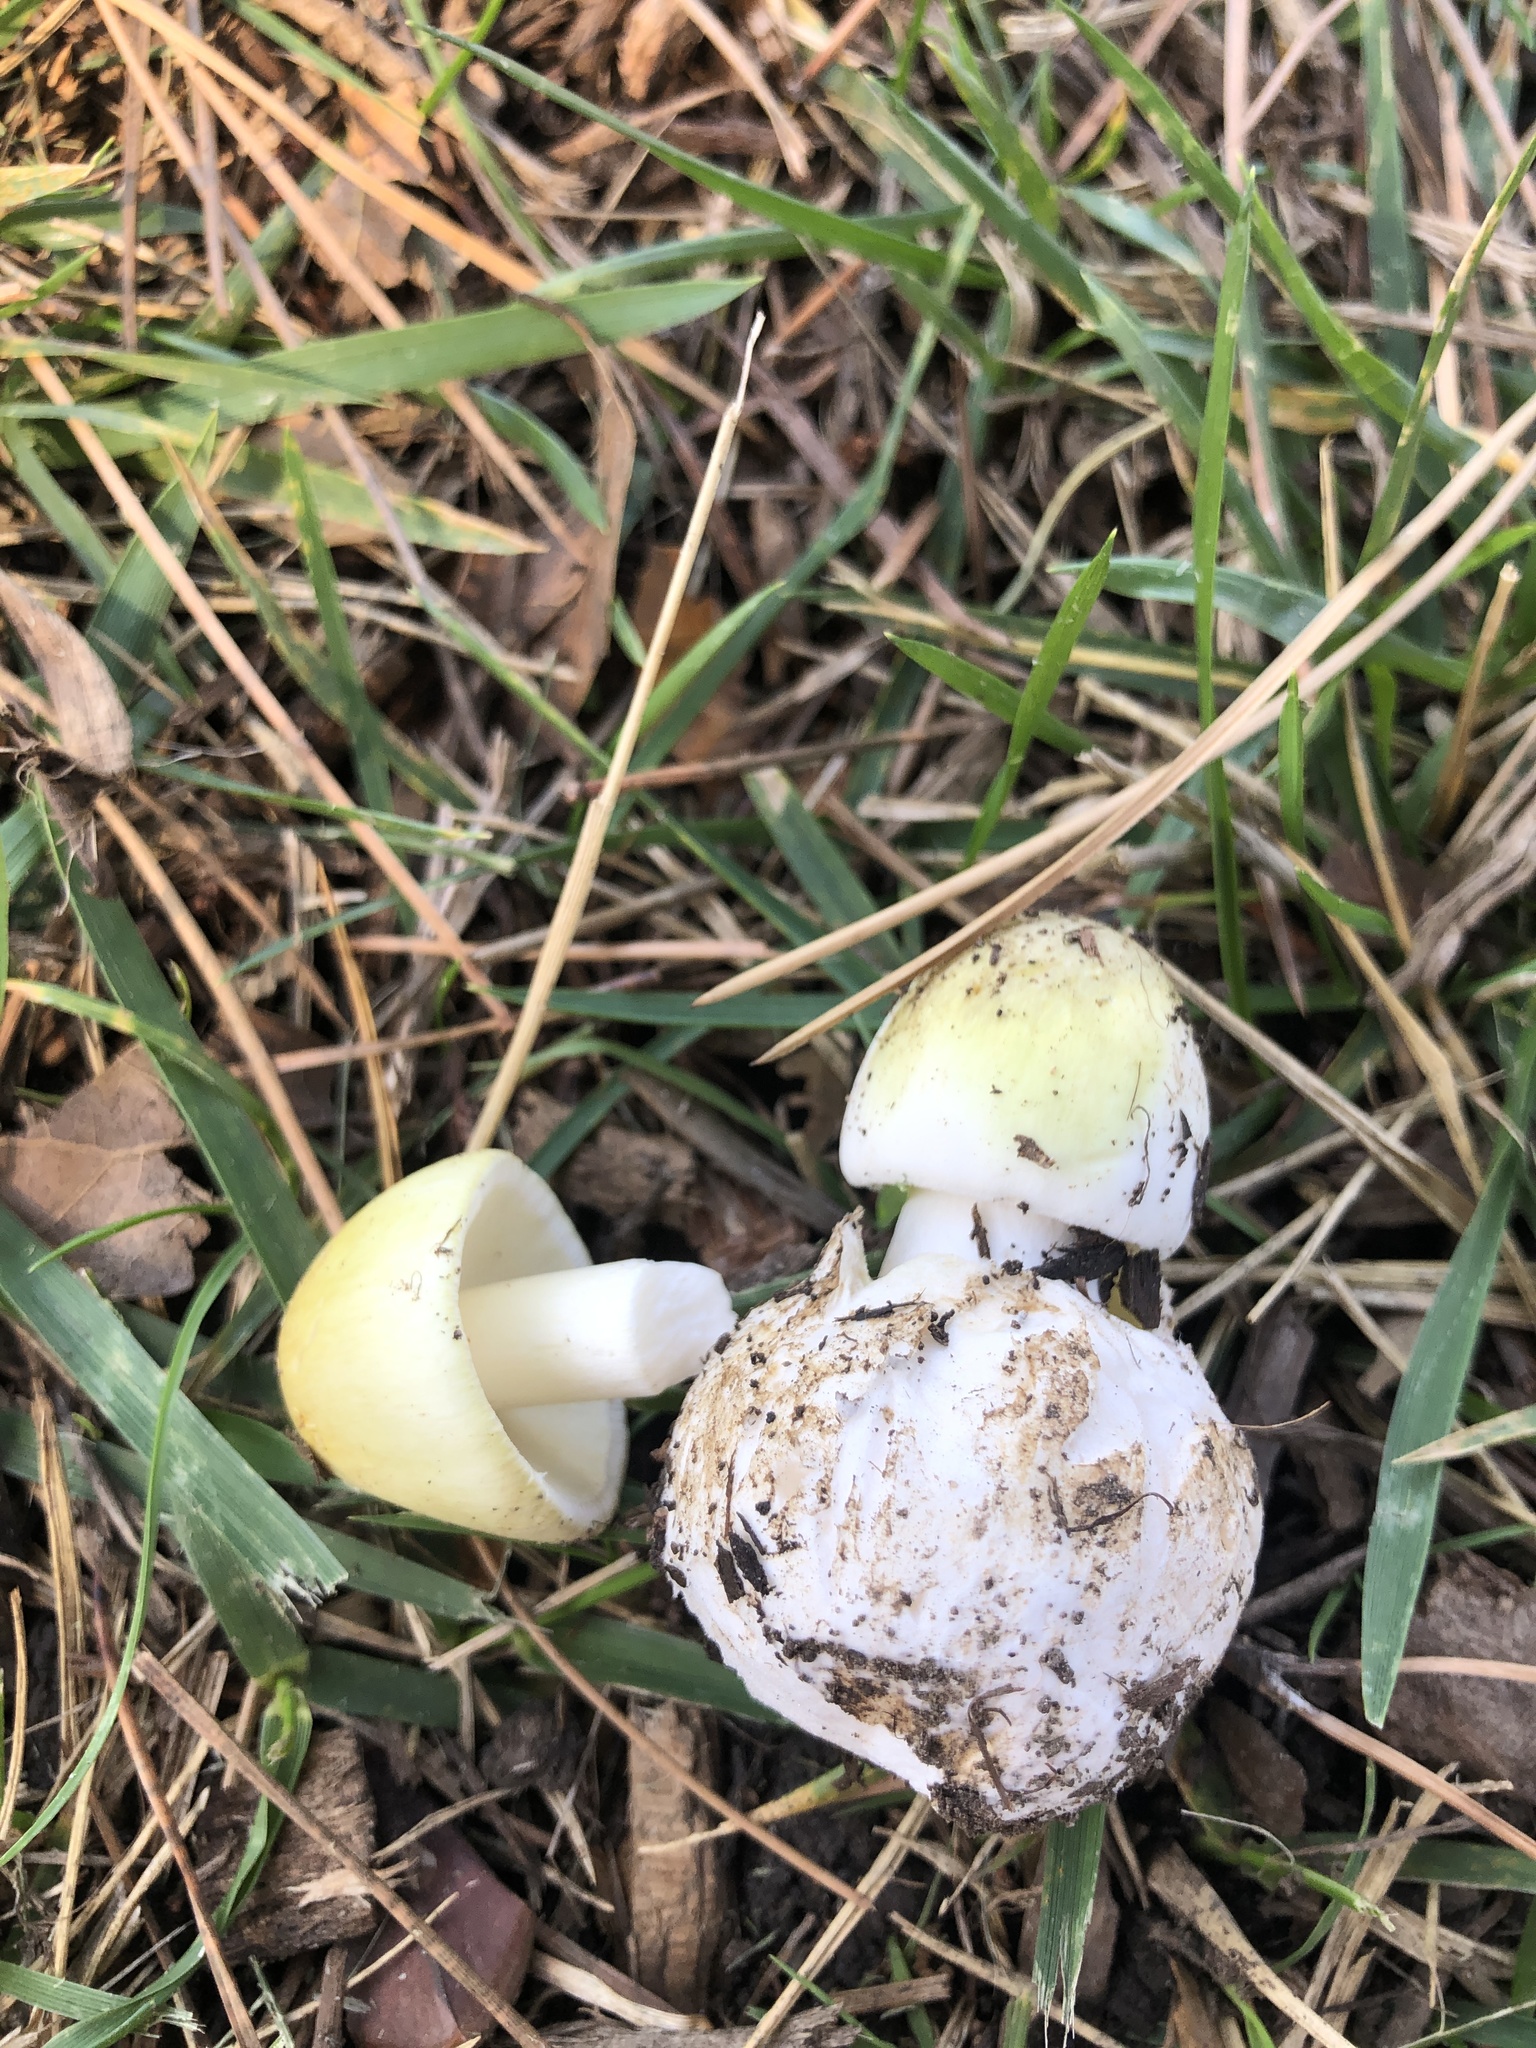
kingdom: Fungi
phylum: Basidiomycota
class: Agaricomycetes
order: Agaricales
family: Amanitaceae
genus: Amanita
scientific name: Amanita phalloides
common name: Death cap
